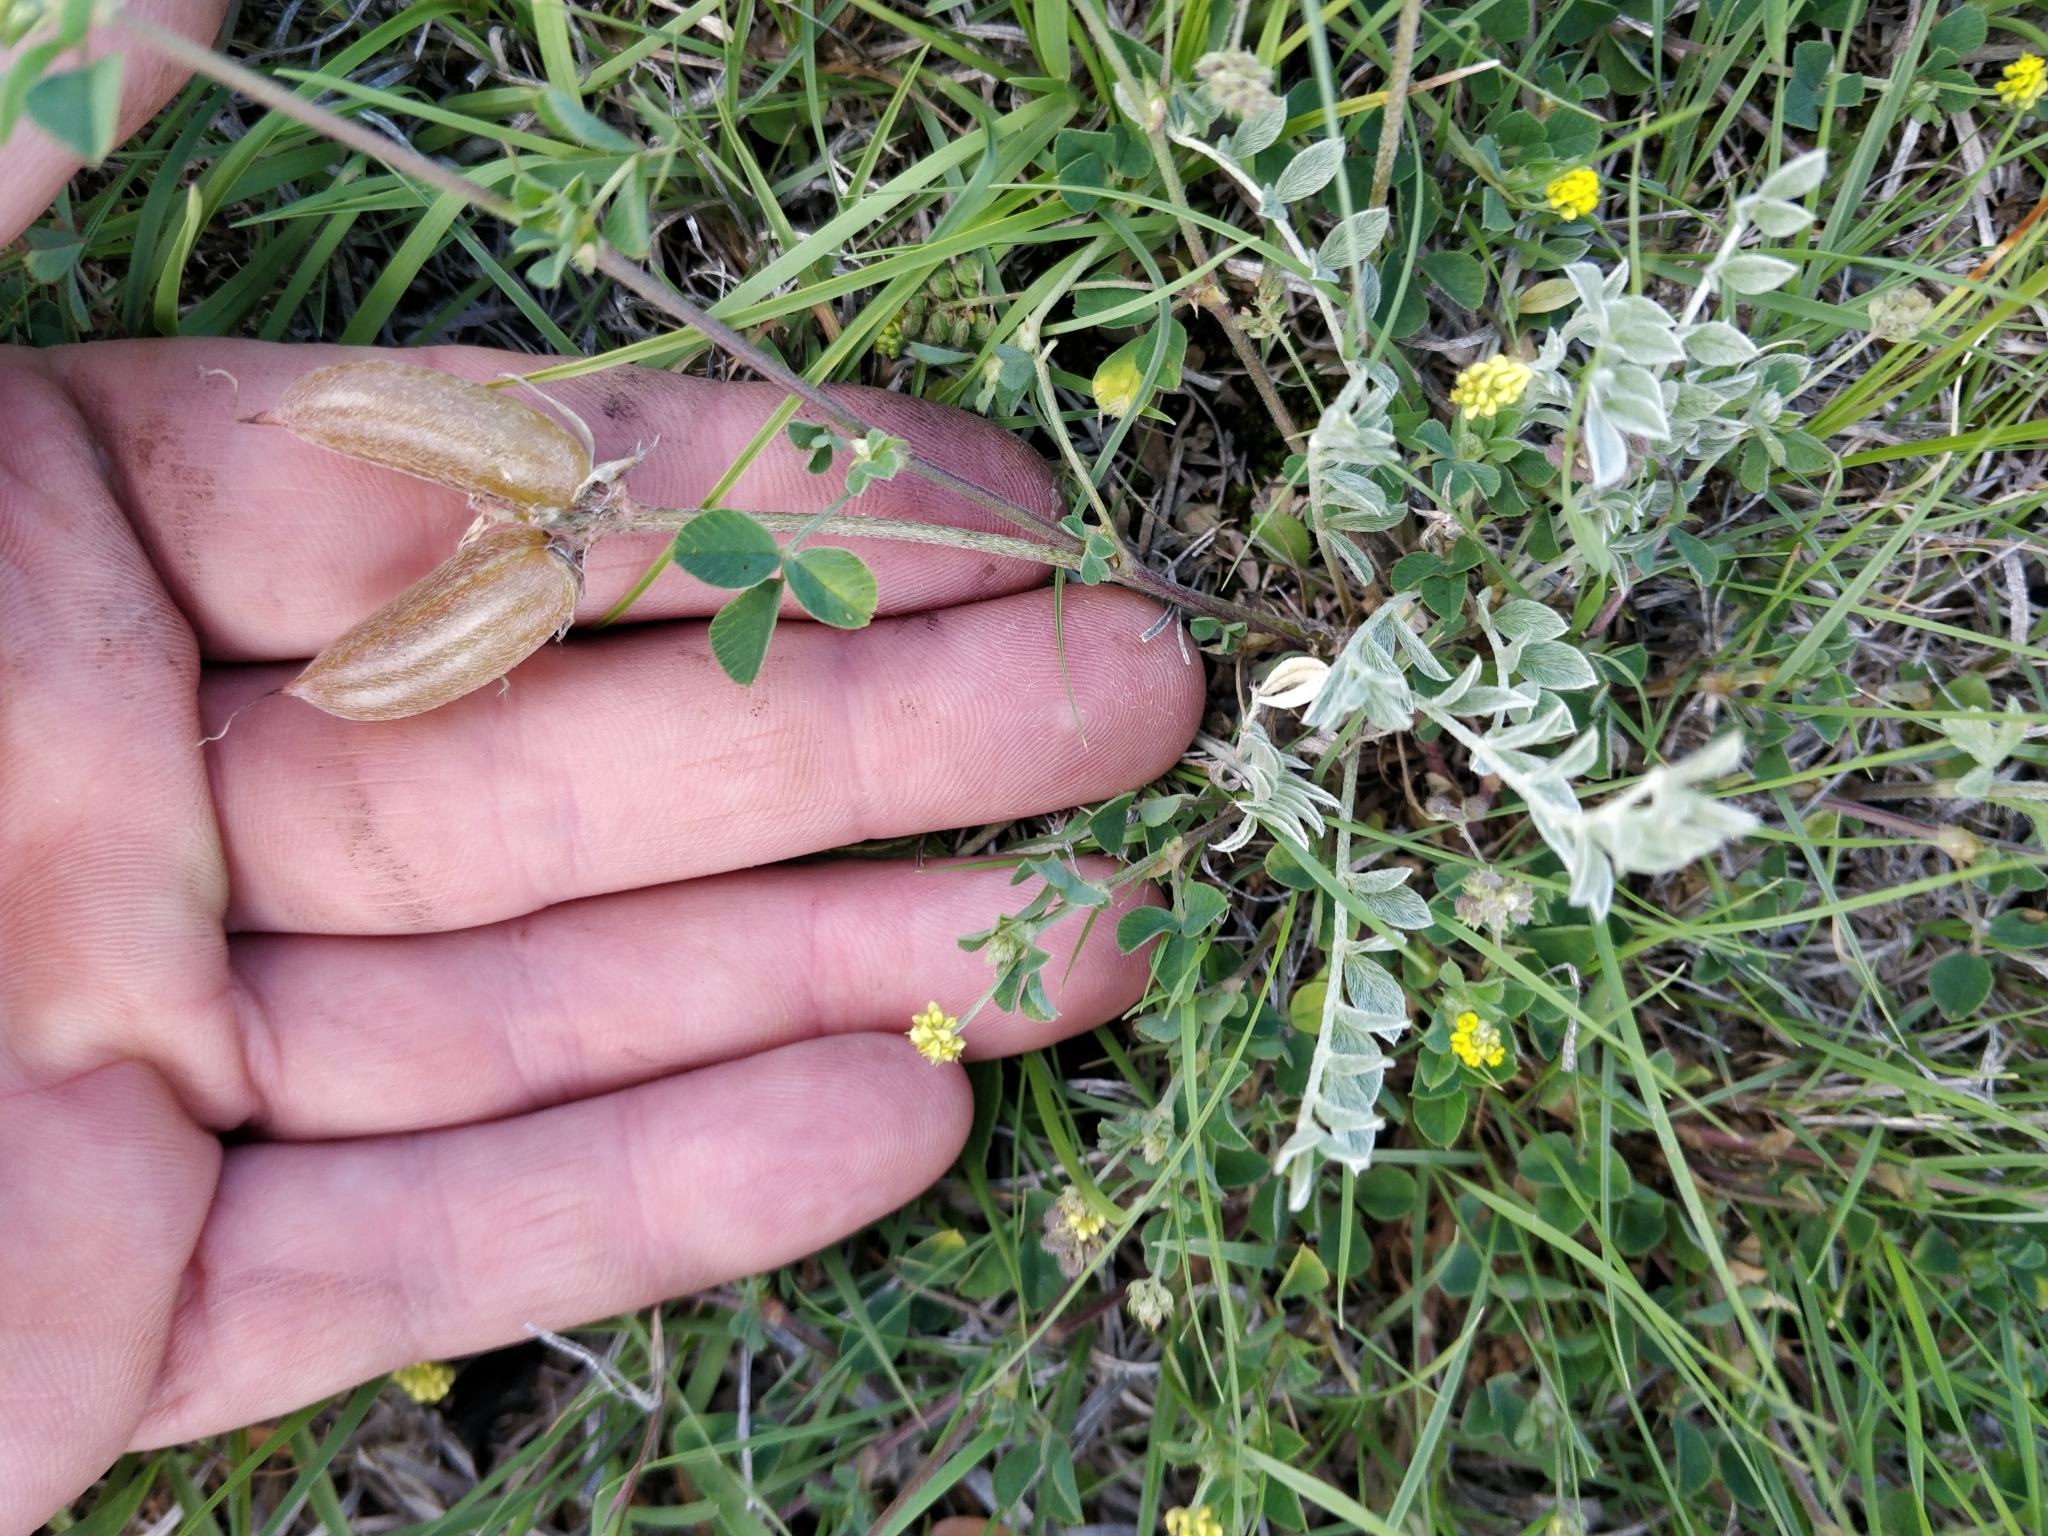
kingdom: Plantae
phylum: Tracheophyta
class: Magnoliopsida
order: Fabales
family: Fabaceae
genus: Astragalus
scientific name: Astragalus missouriensis
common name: Missouri milk-vetch
